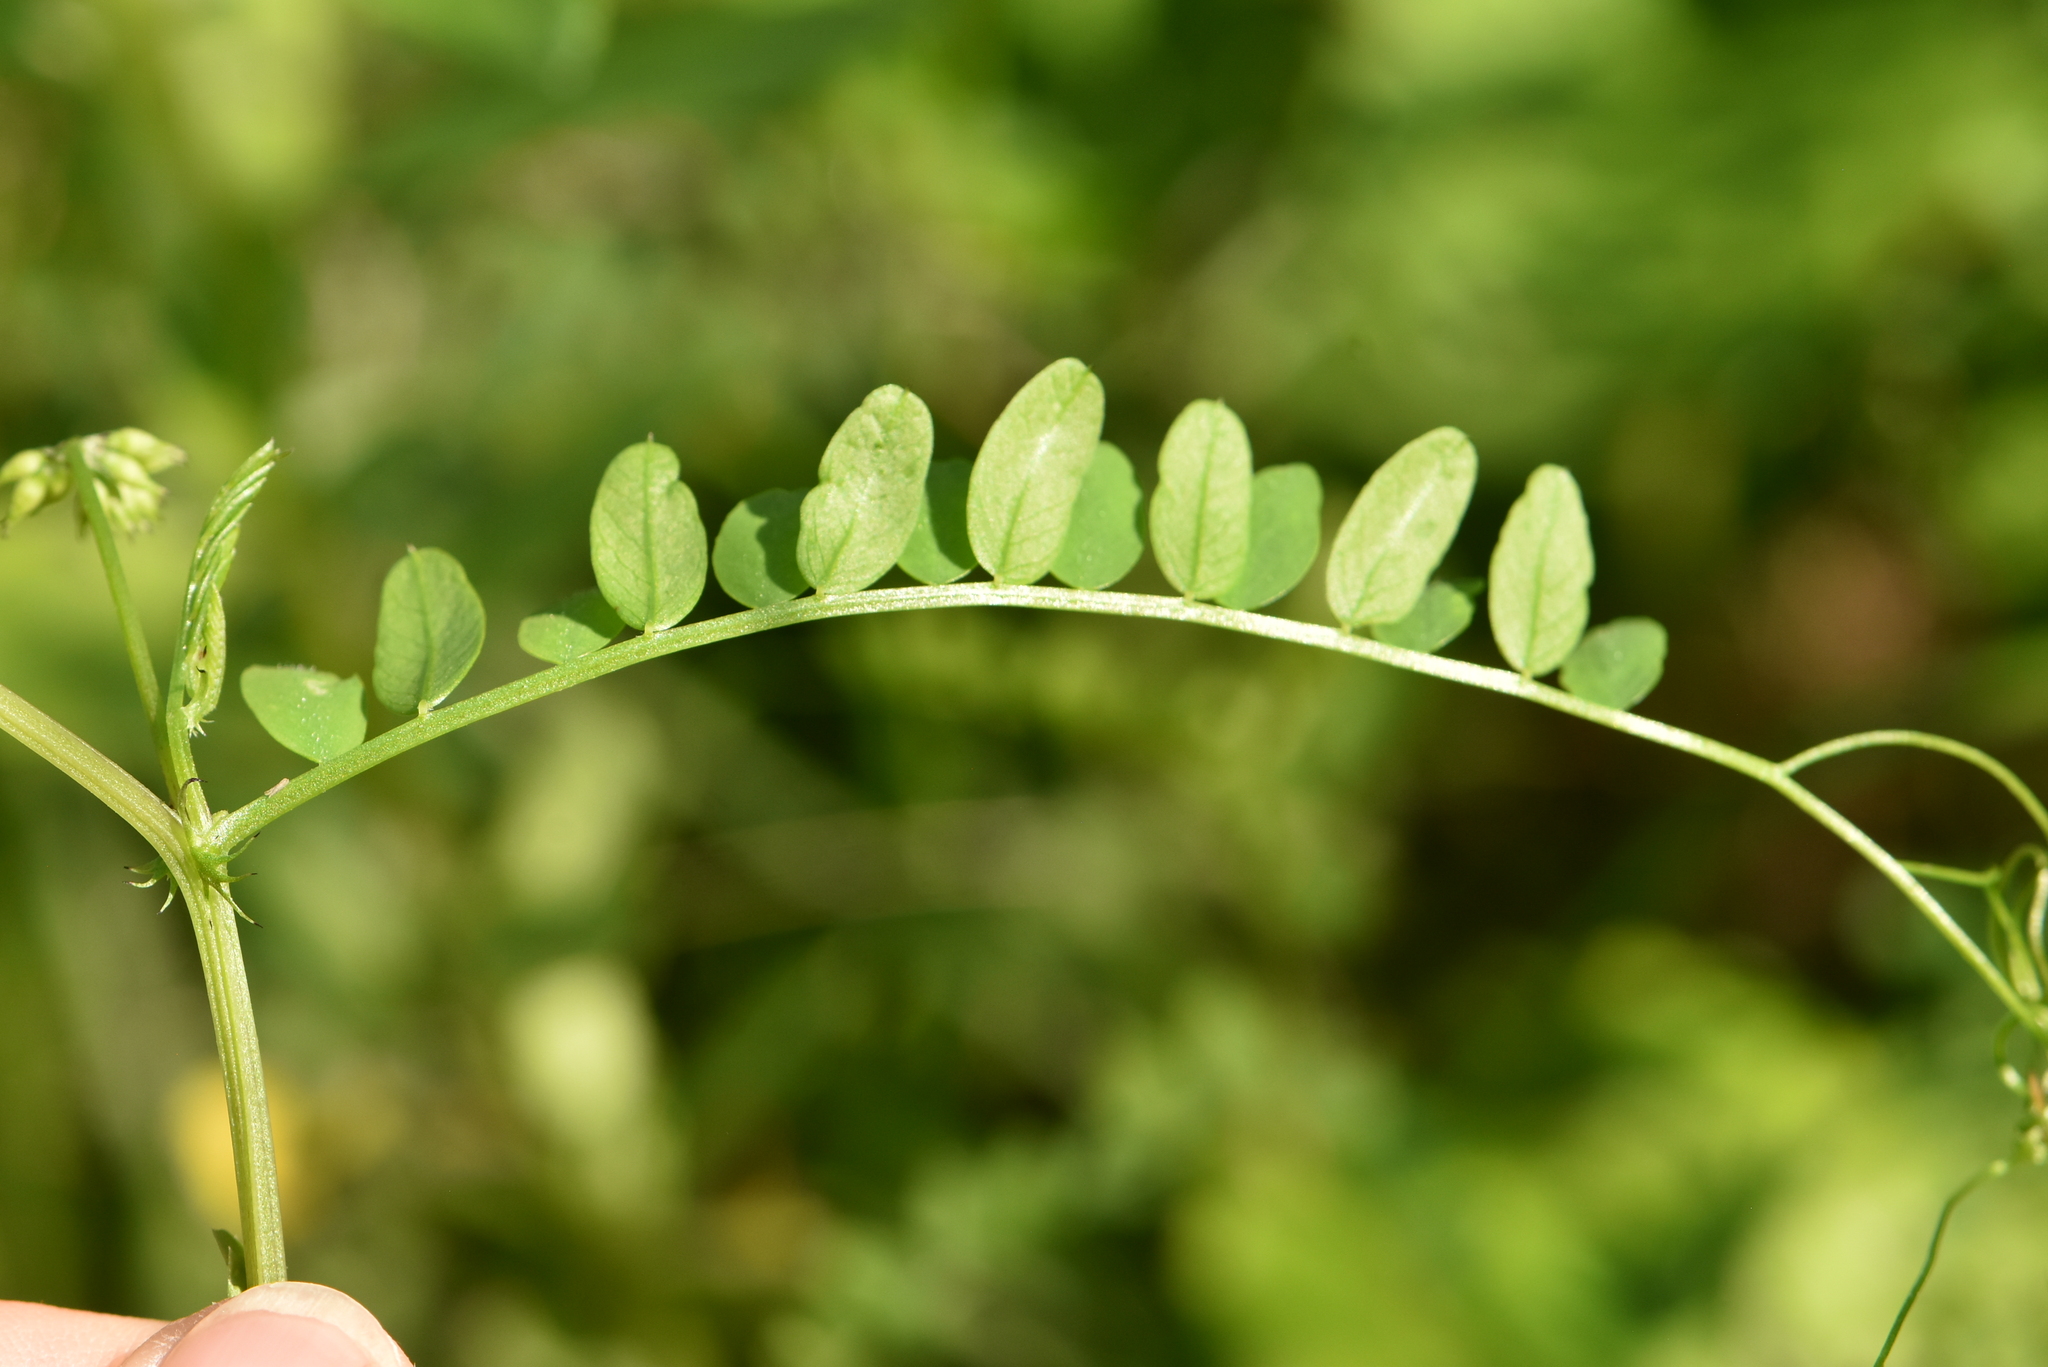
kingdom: Plantae
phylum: Tracheophyta
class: Magnoliopsida
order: Fabales
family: Fabaceae
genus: Vicia
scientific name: Vicia sylvatica
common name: Wood vetch
